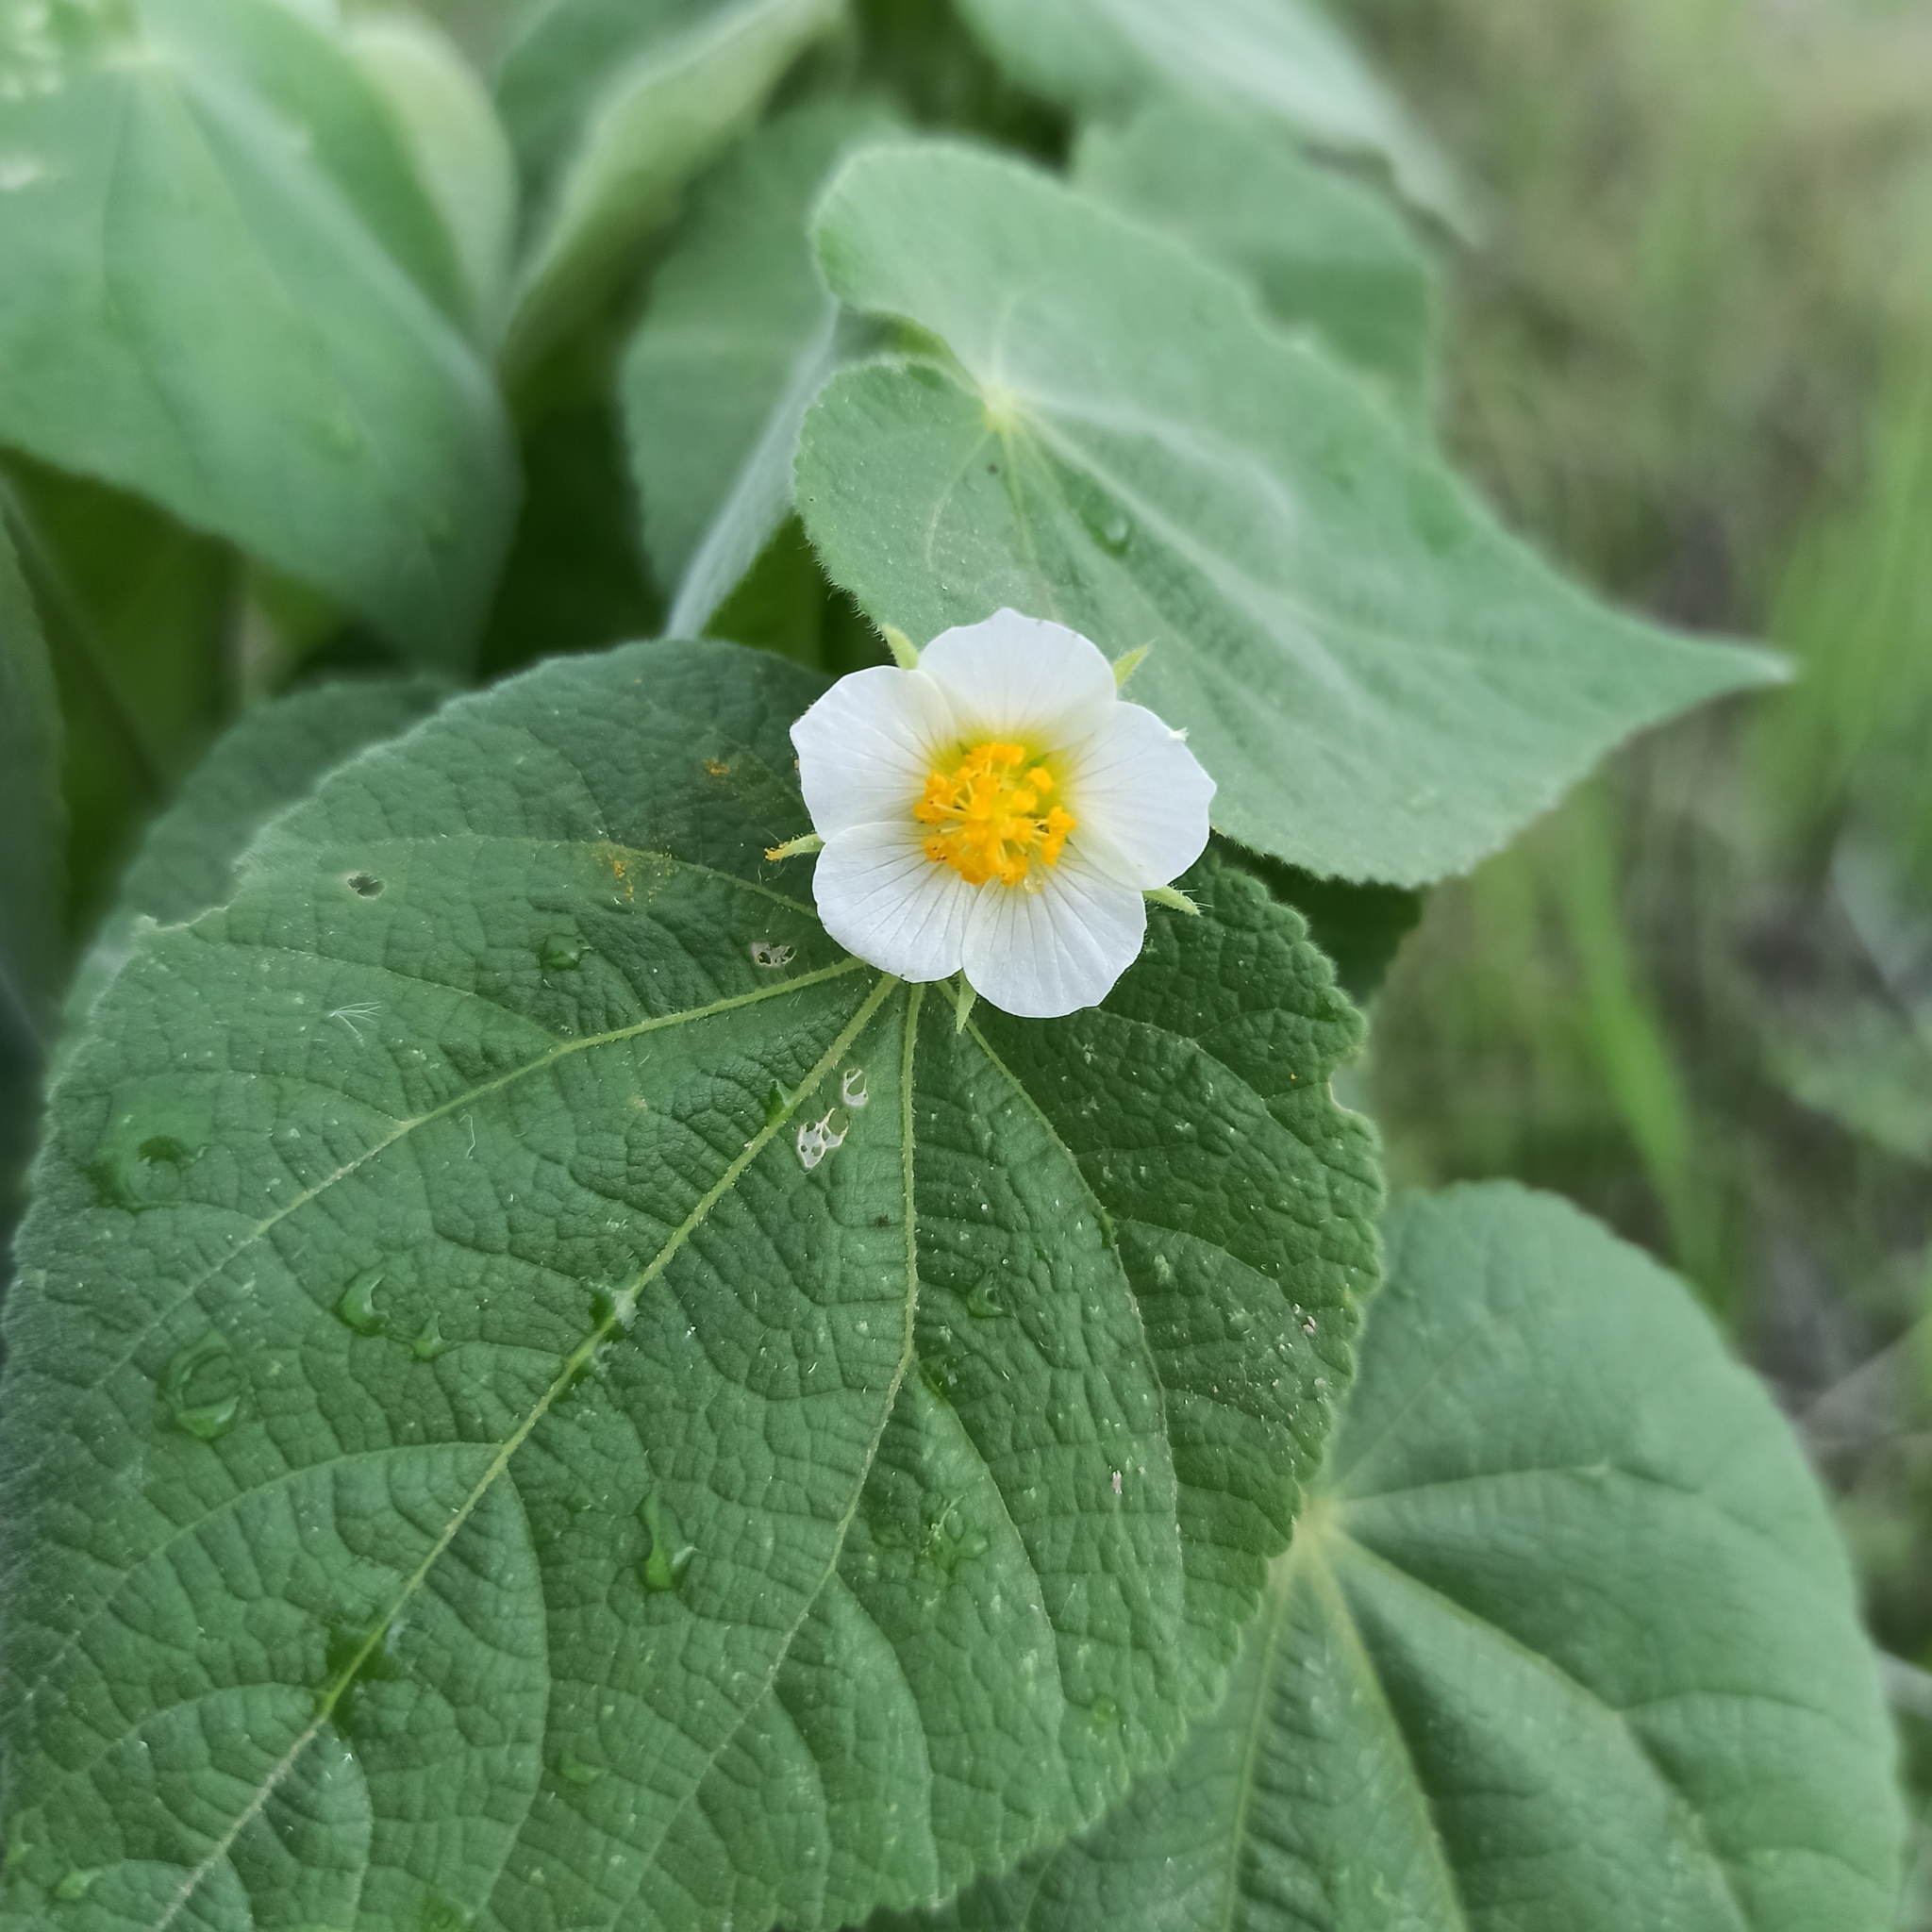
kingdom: Plantae
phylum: Tracheophyta
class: Magnoliopsida
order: Malvales
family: Malvaceae
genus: Herissantia
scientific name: Herissantia crispa
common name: Bladdermallow
